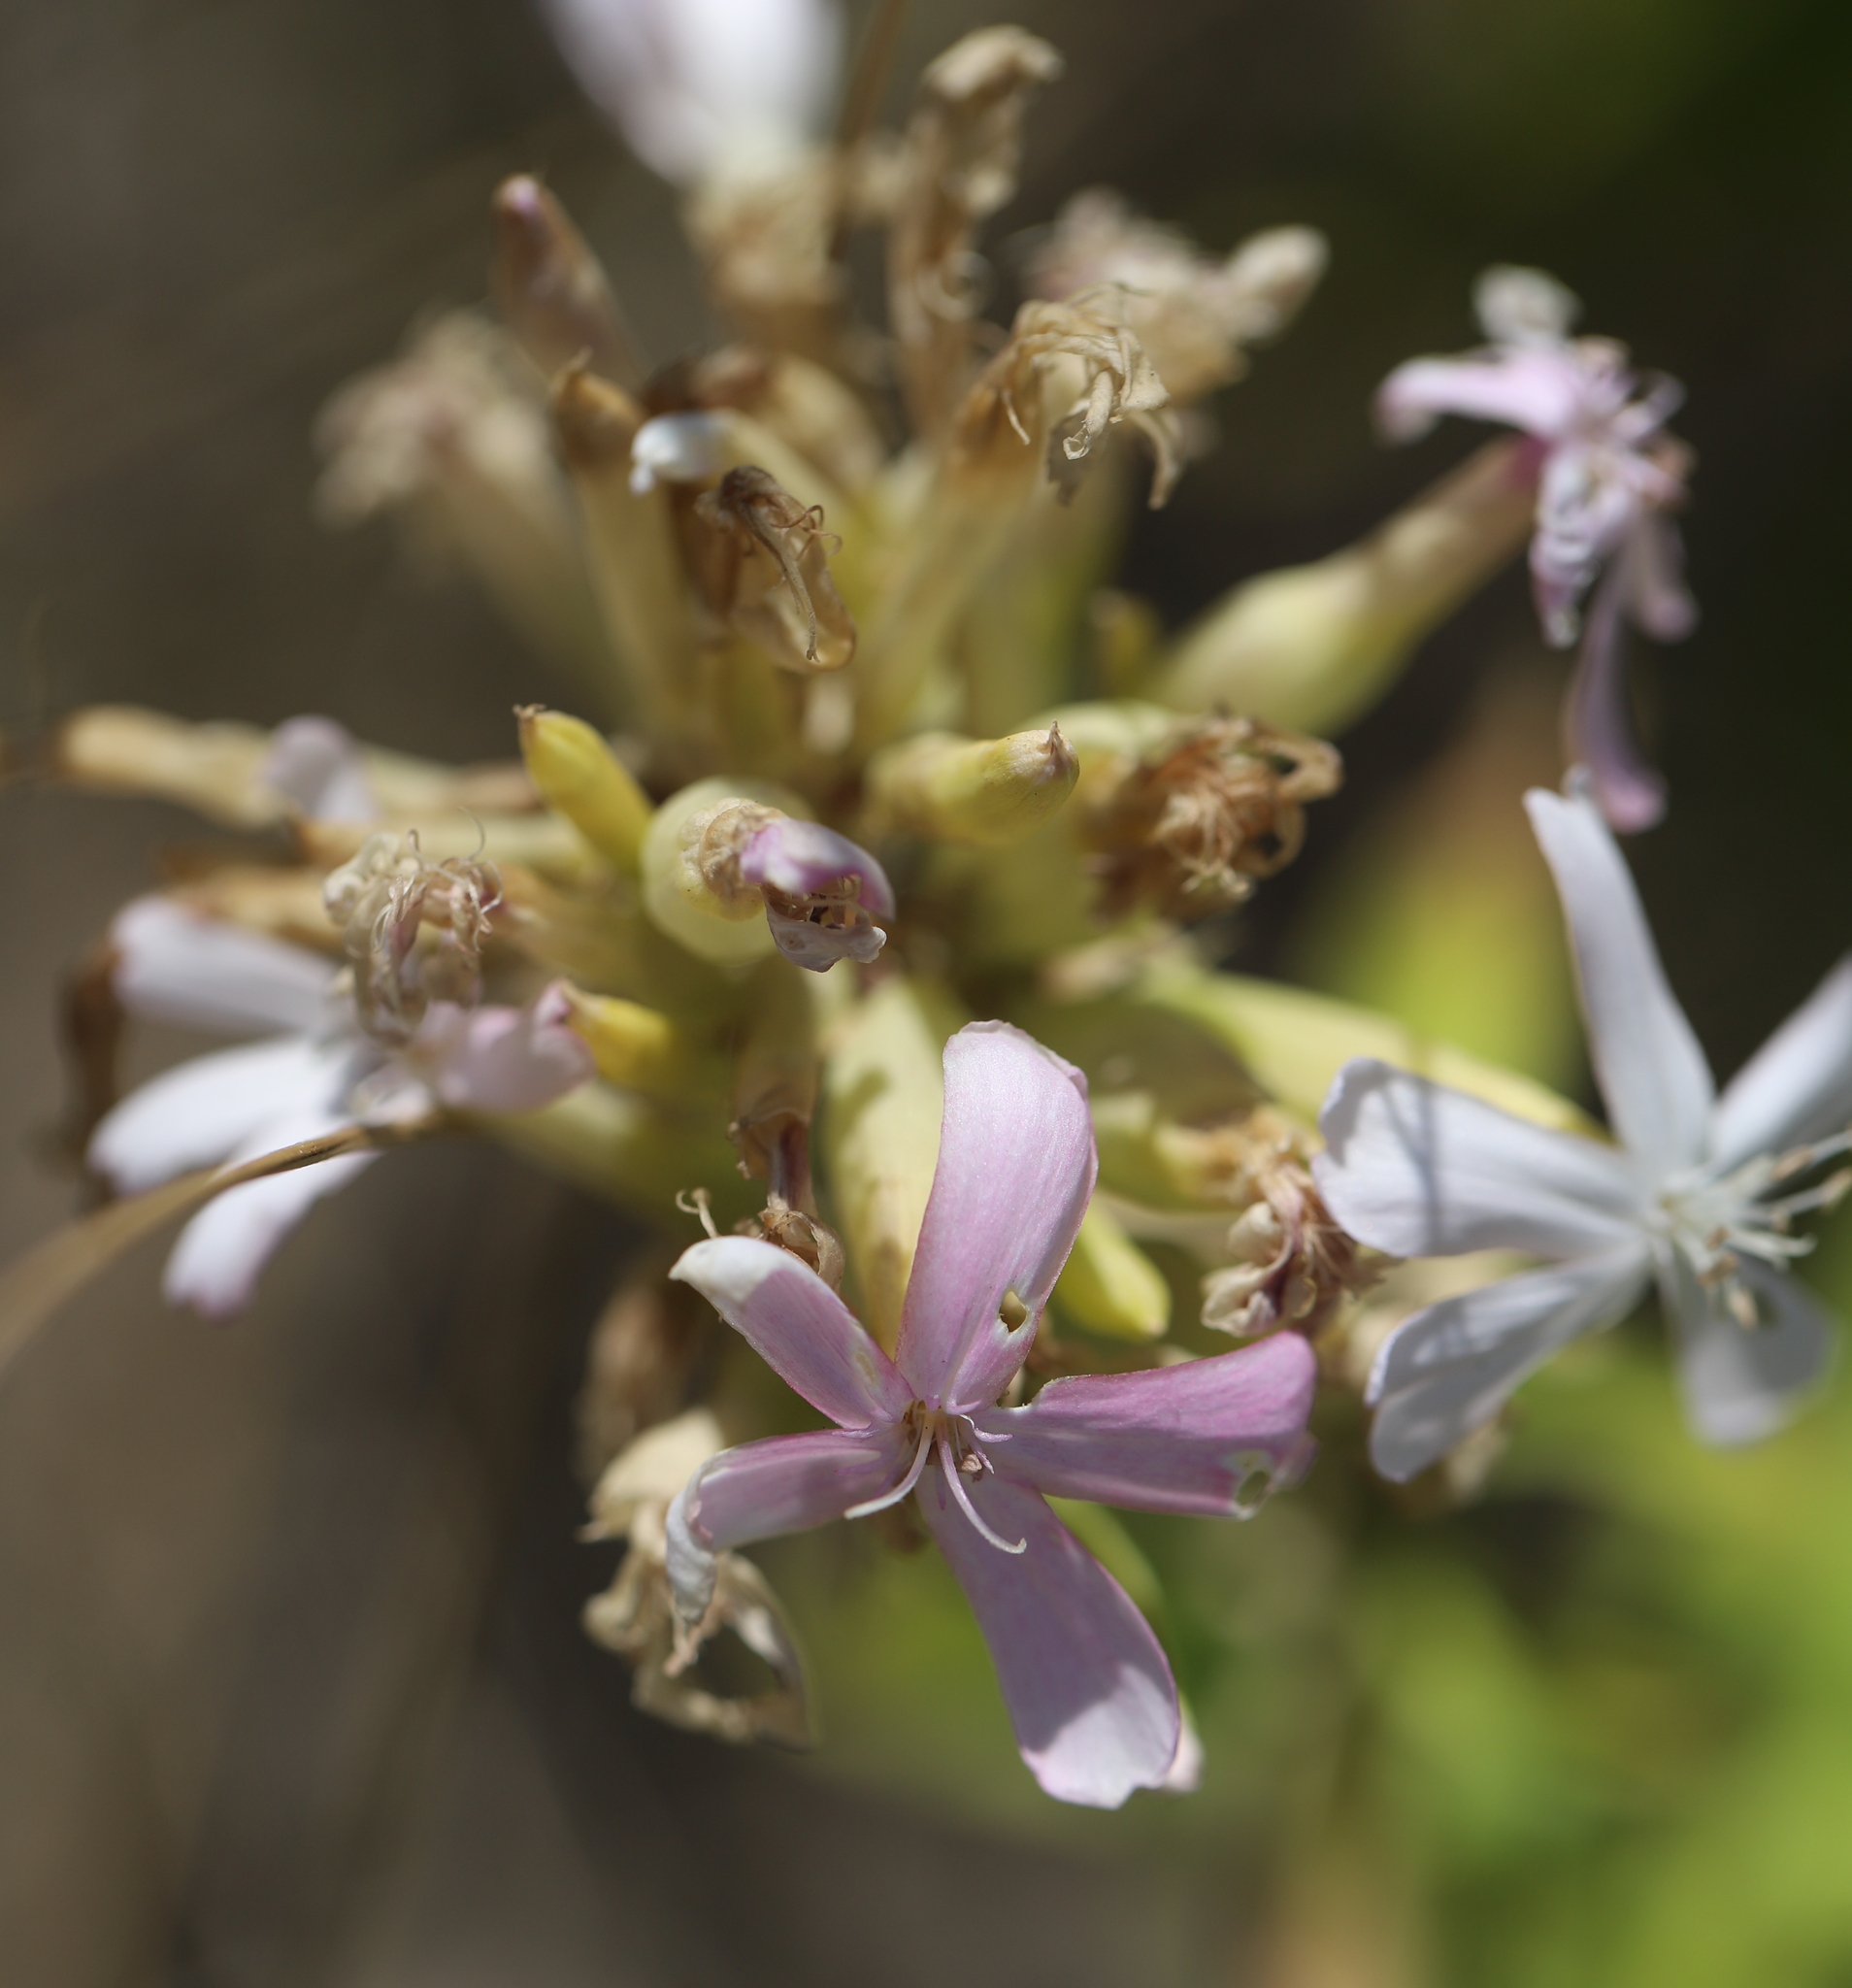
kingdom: Plantae
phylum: Tracheophyta
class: Magnoliopsida
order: Caryophyllales
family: Caryophyllaceae
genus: Saponaria
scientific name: Saponaria officinalis
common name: Soapwort
